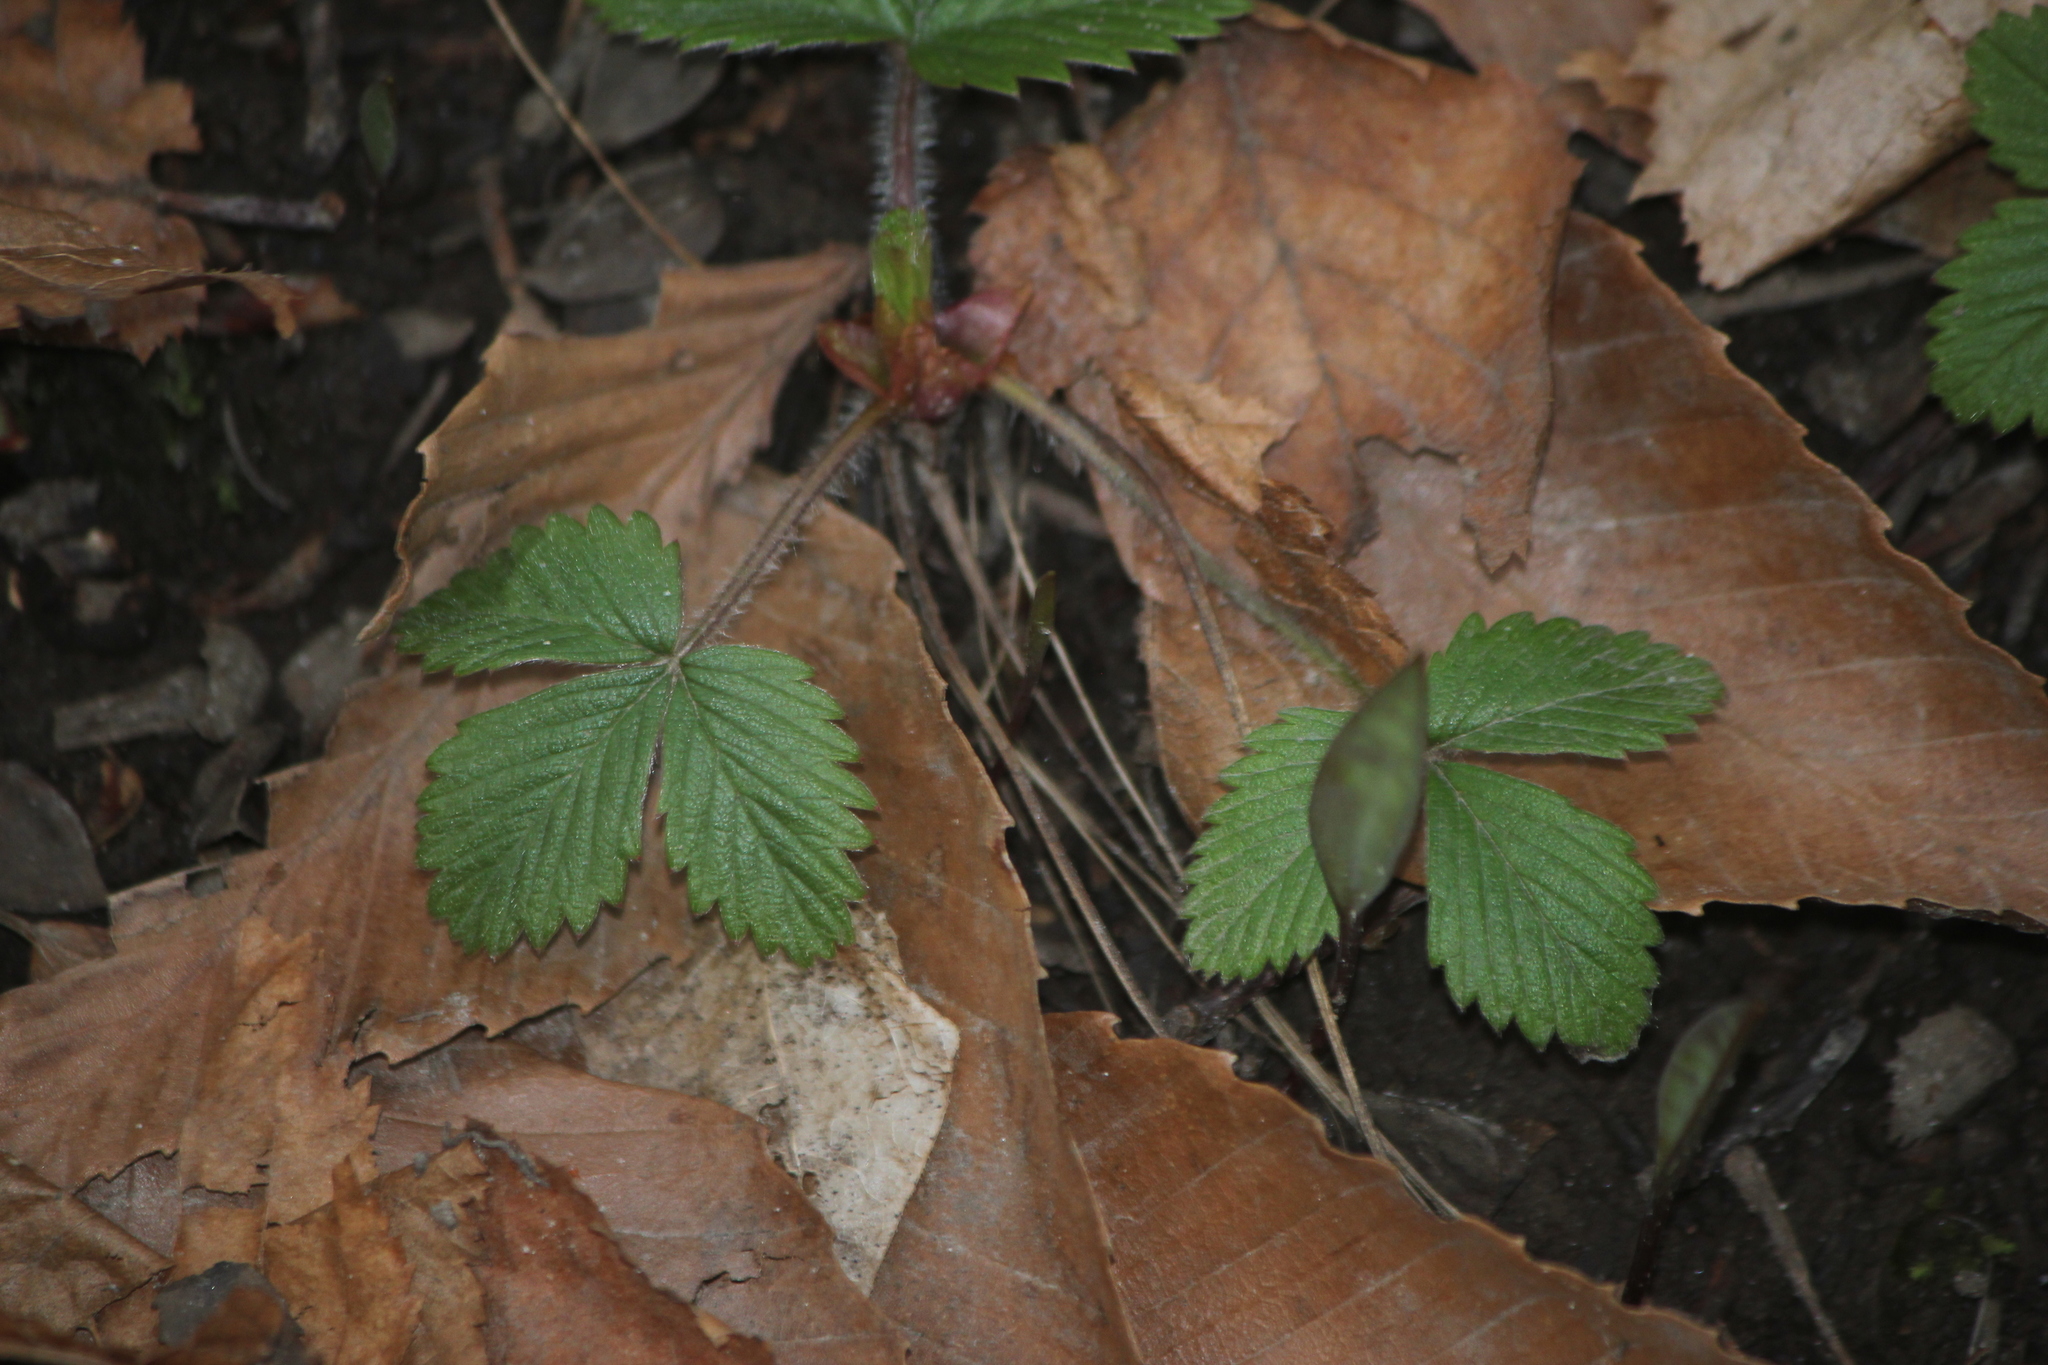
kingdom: Plantae
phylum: Tracheophyta
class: Magnoliopsida
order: Rosales
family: Rosaceae
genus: Fragaria
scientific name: Fragaria virginiana
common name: Thickleaved wild strawberry
